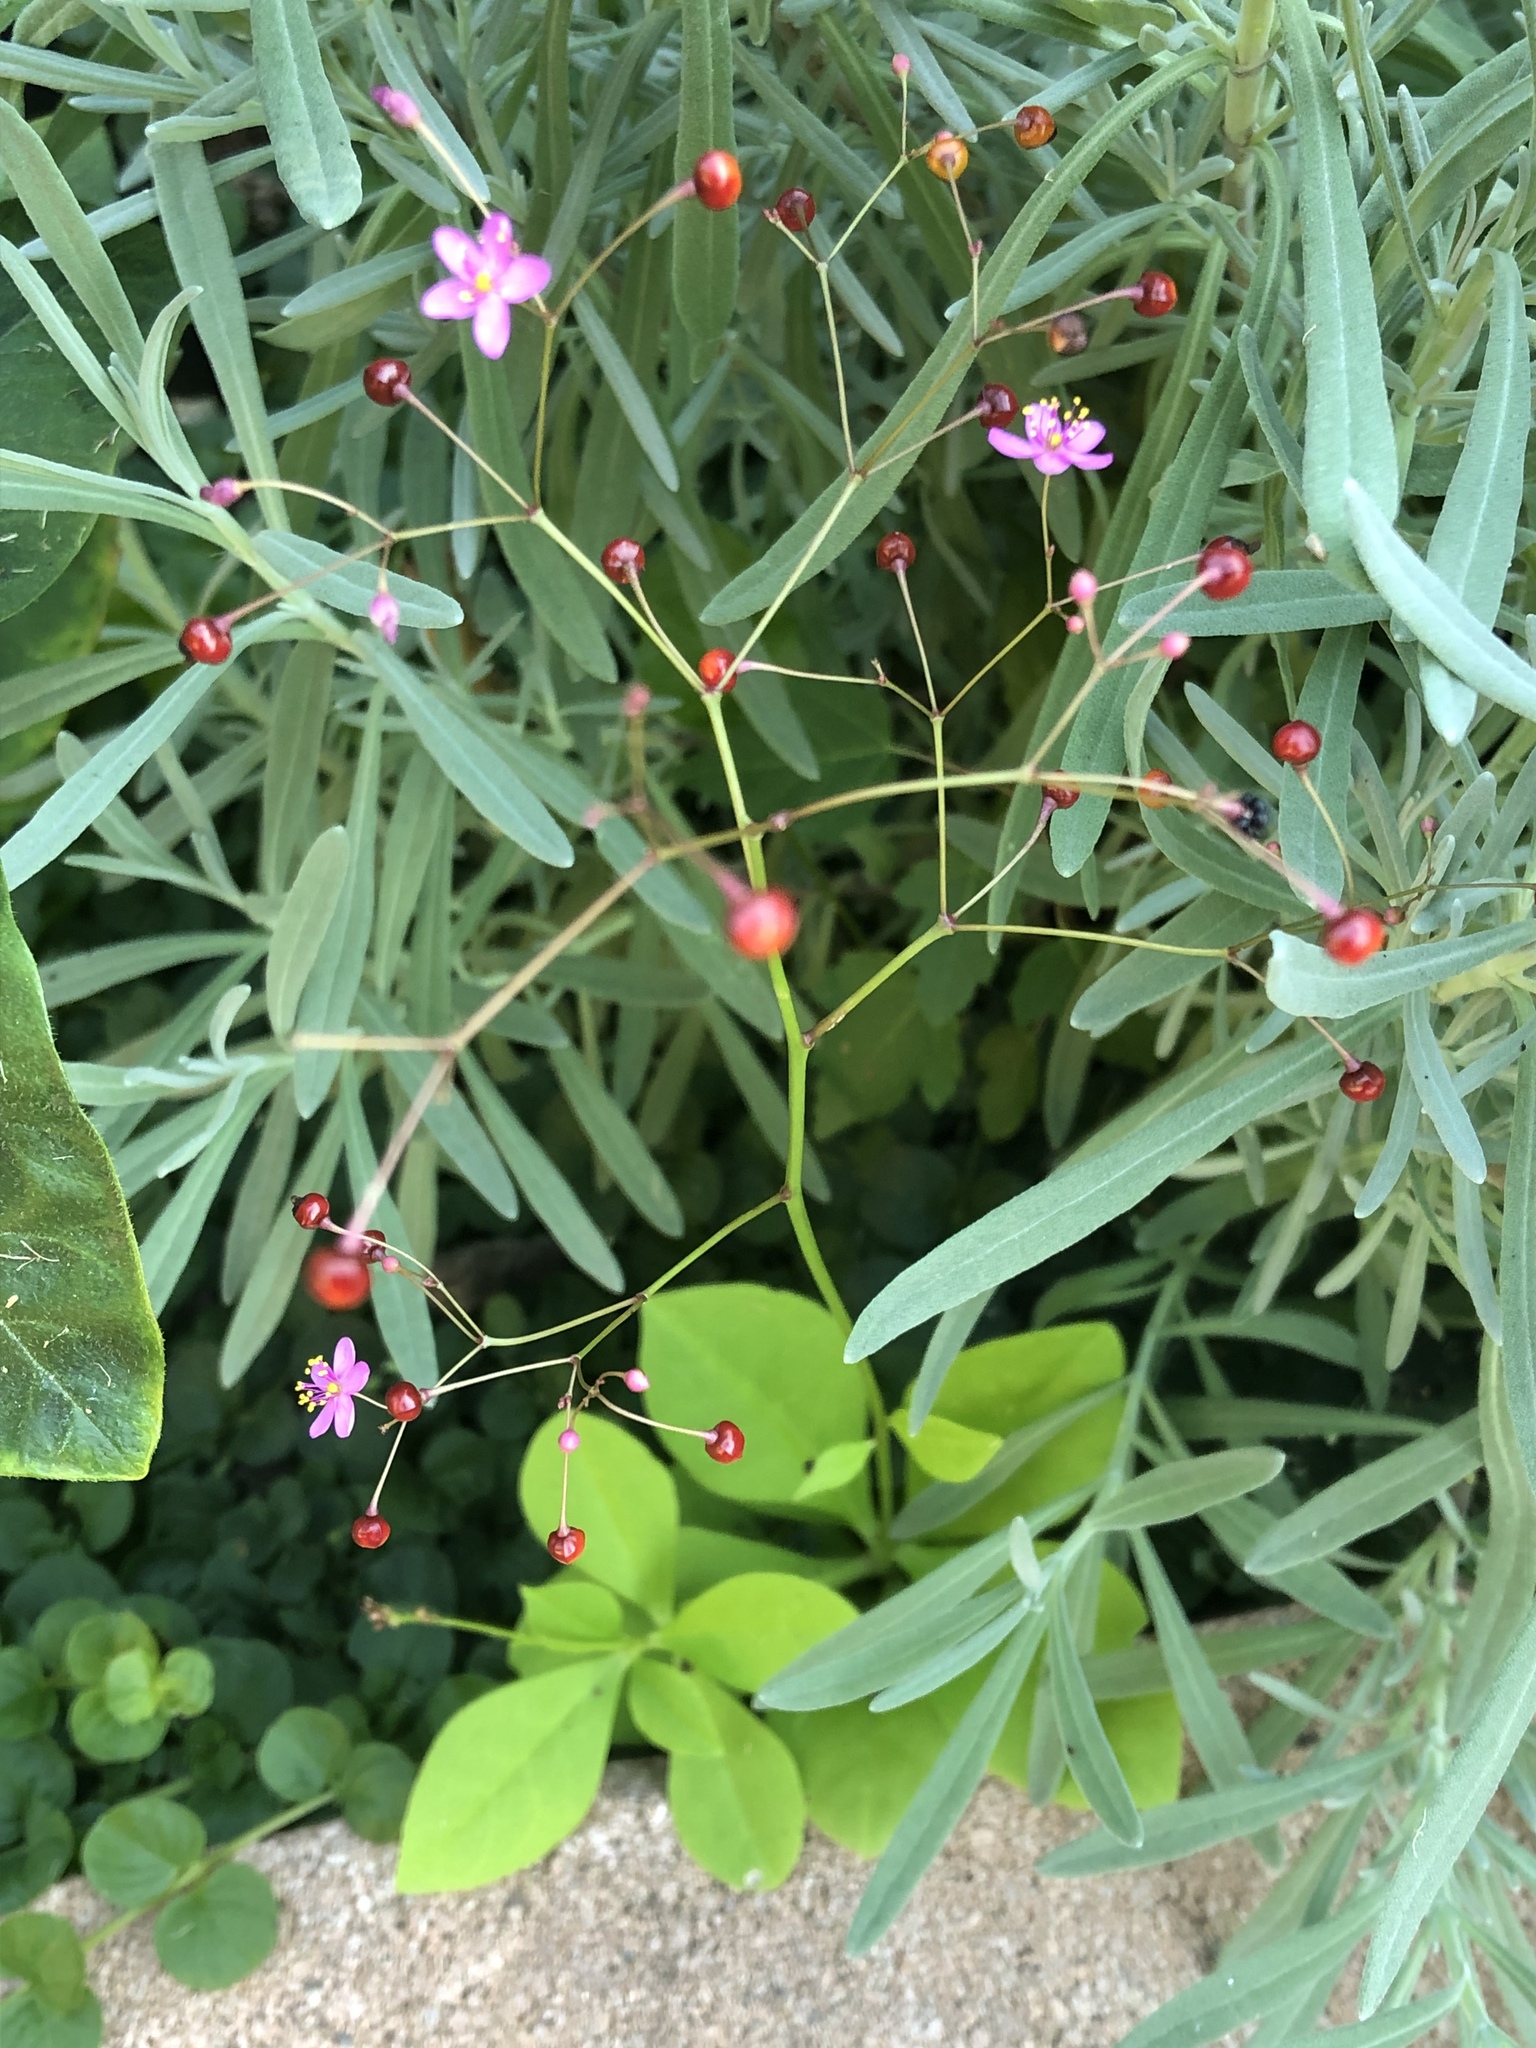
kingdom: Plantae
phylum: Tracheophyta
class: Magnoliopsida
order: Caryophyllales
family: Talinaceae
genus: Talinum
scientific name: Talinum paniculatum
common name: Jewels of opar
